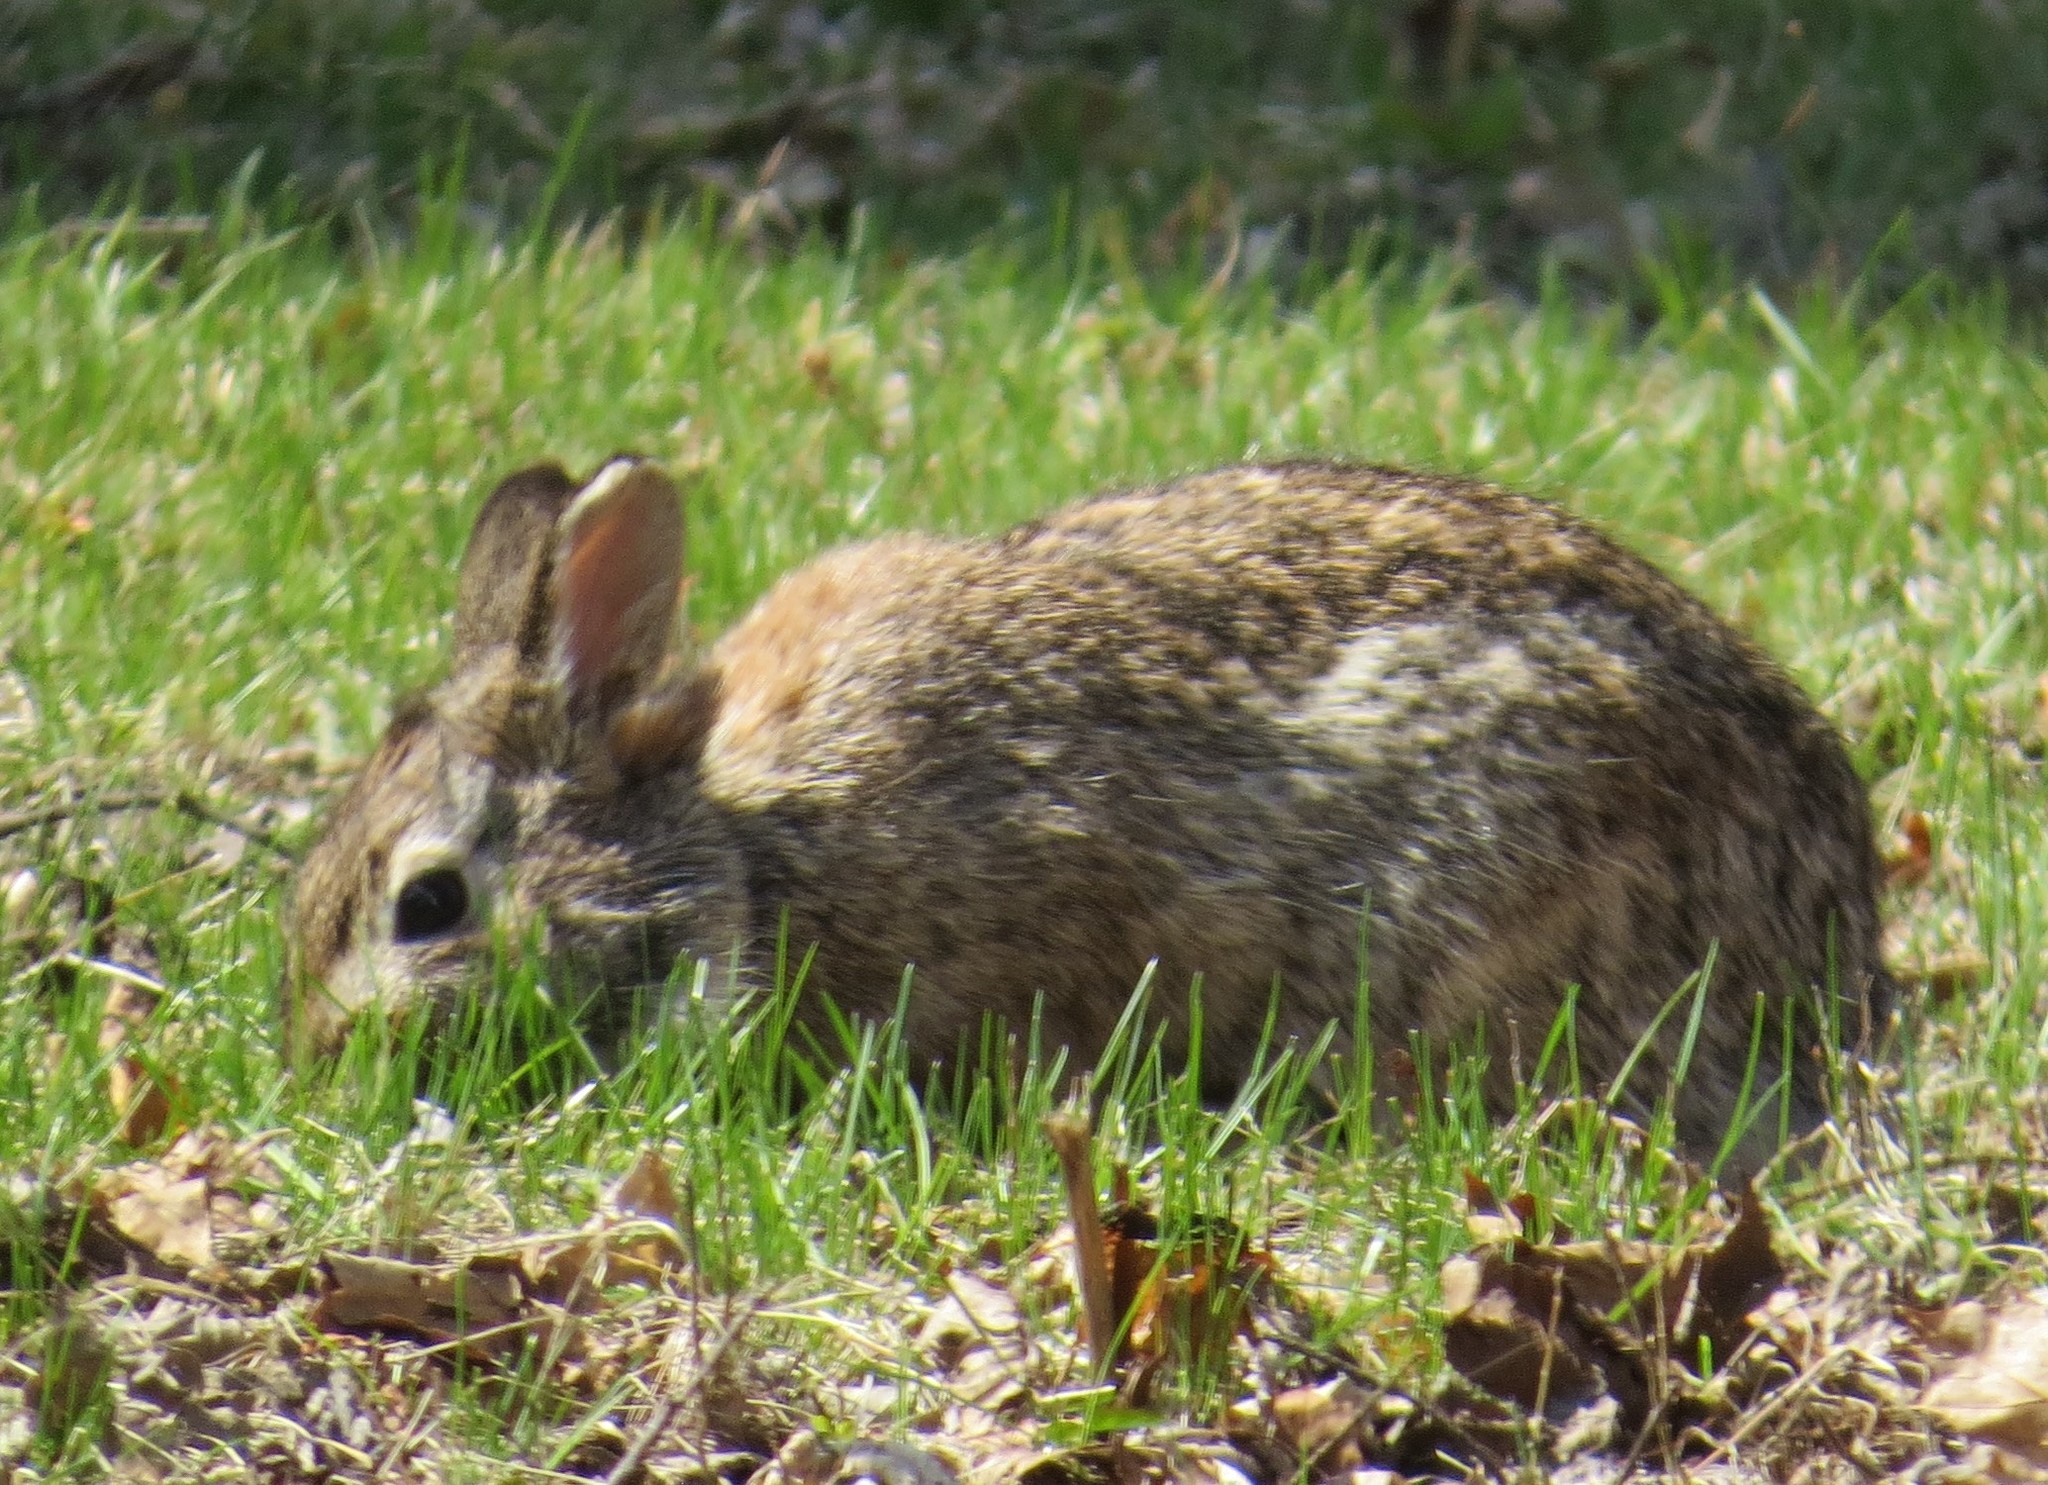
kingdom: Animalia
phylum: Chordata
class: Mammalia
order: Lagomorpha
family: Leporidae
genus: Sylvilagus
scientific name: Sylvilagus floridanus
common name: Eastern cottontail
